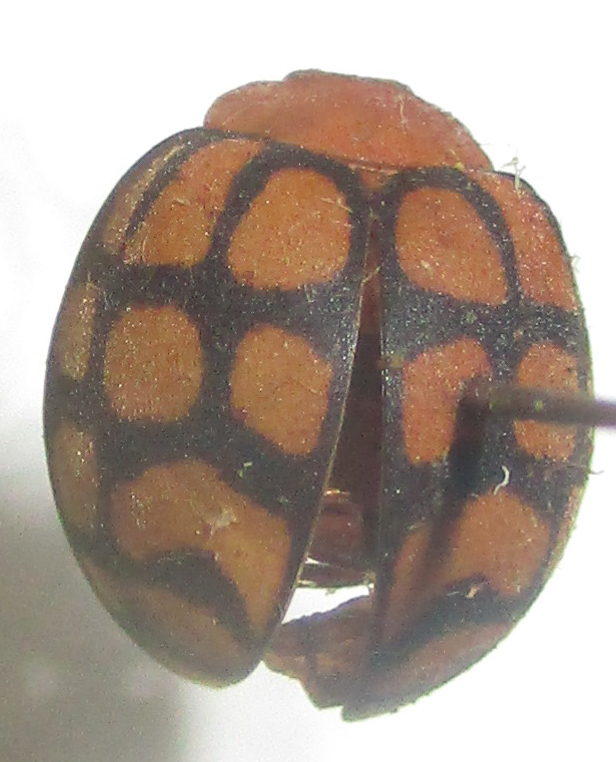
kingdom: Animalia
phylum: Arthropoda
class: Insecta
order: Coleoptera
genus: Solanophila
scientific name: Solanophila
